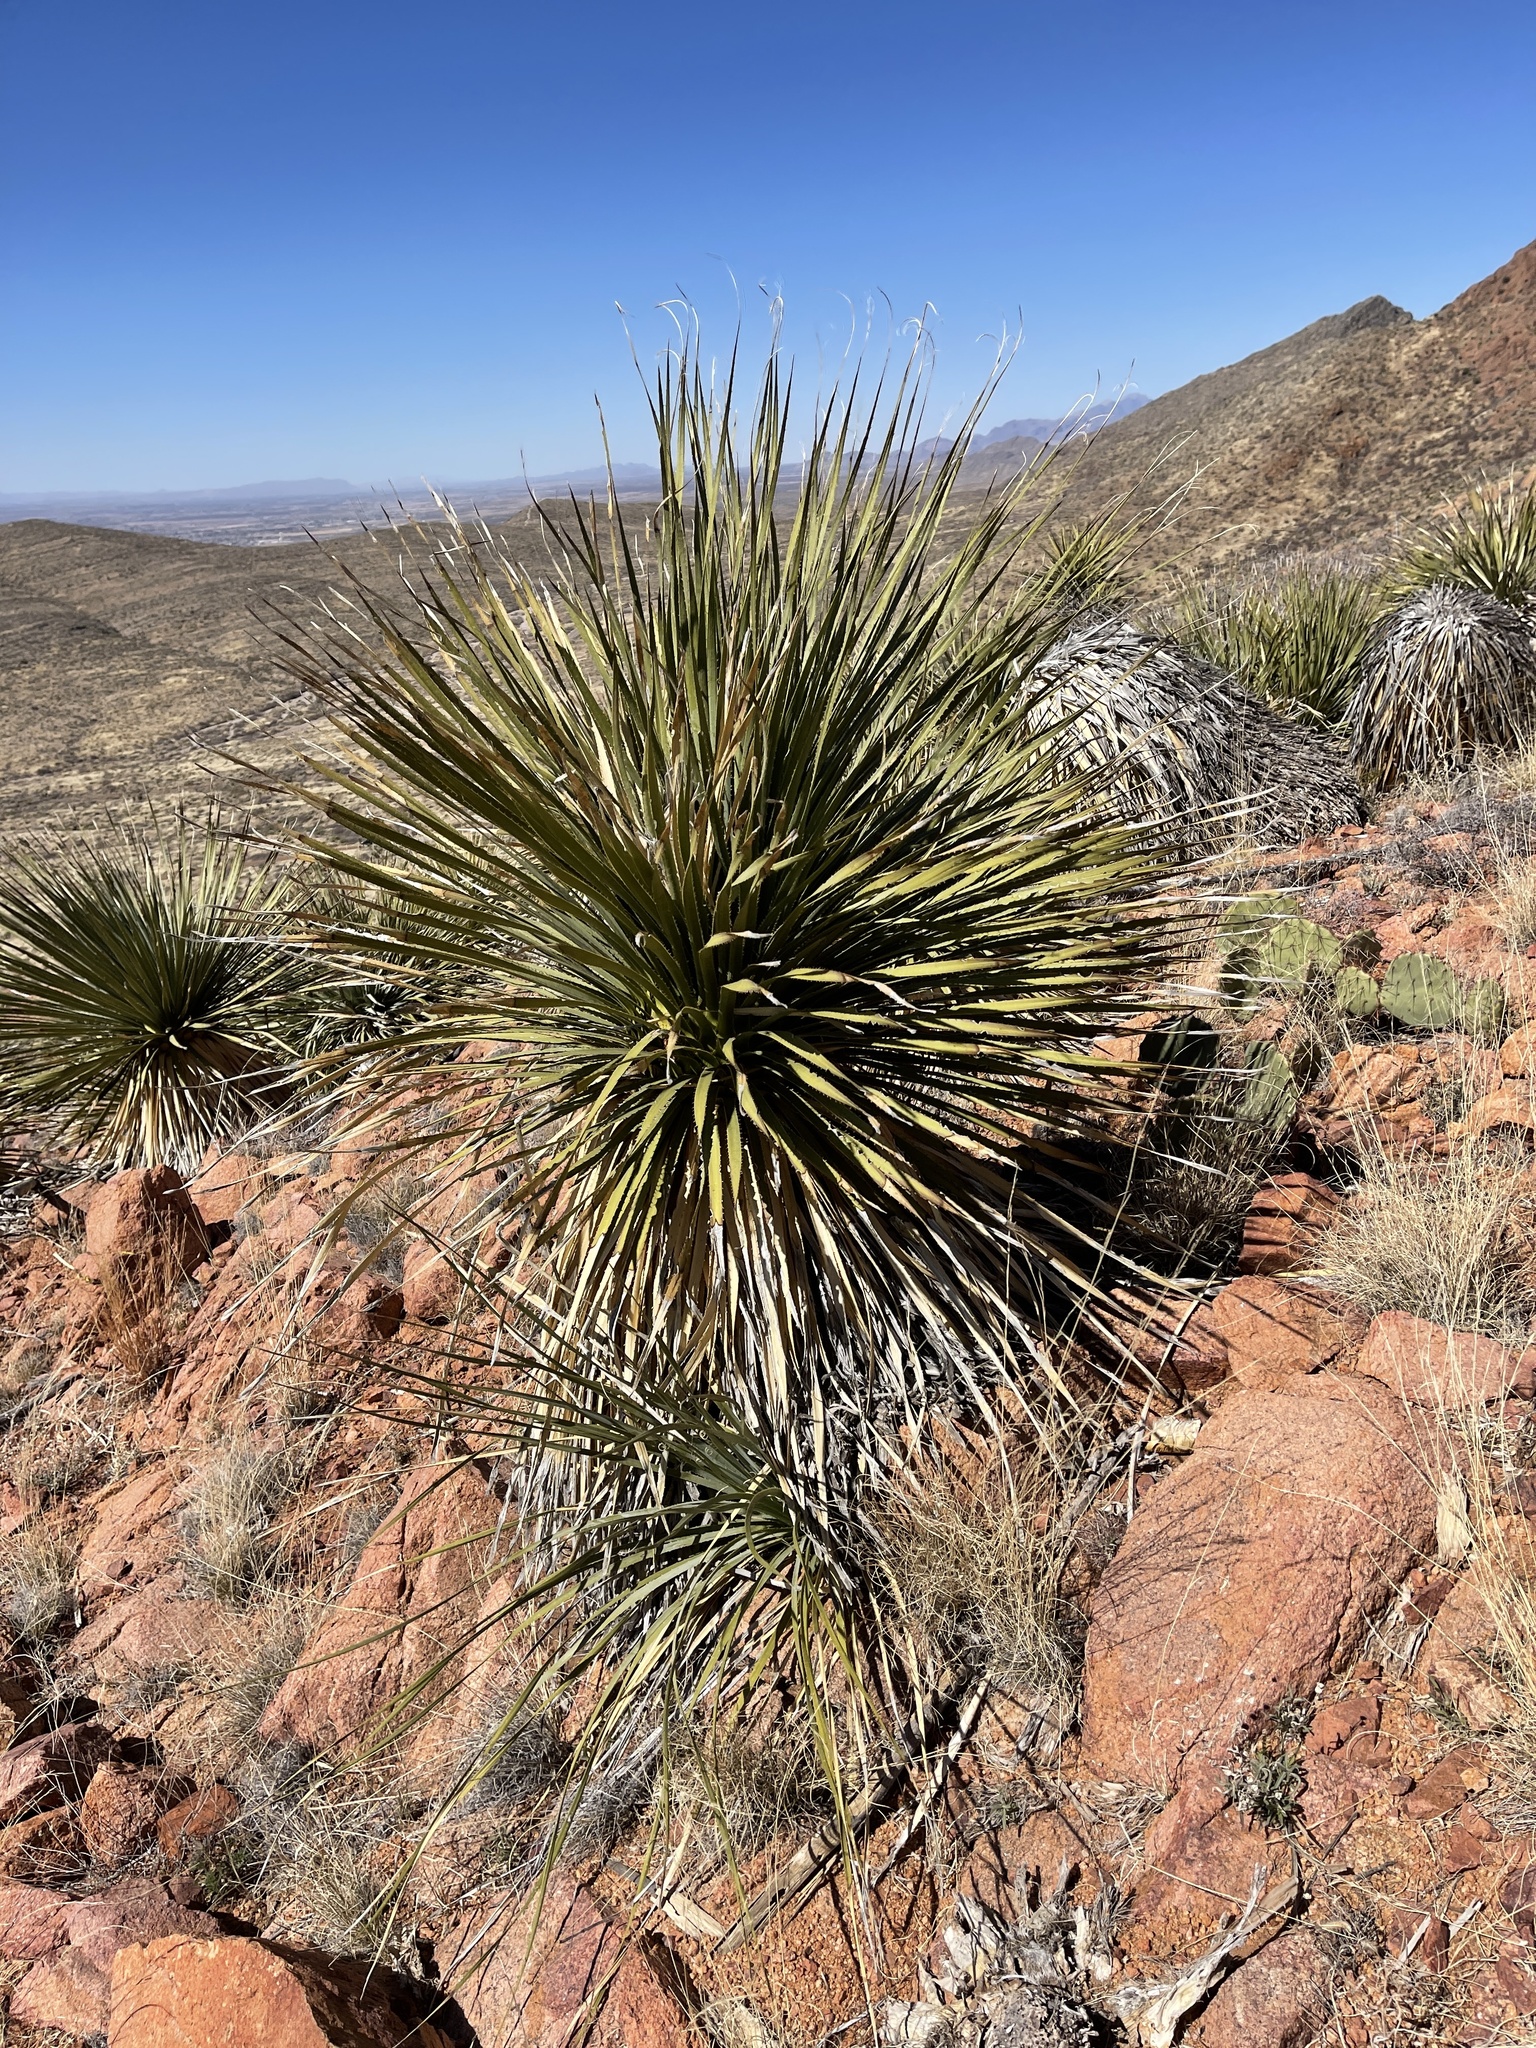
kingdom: Plantae
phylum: Tracheophyta
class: Liliopsida
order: Asparagales
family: Asparagaceae
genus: Dasylirion
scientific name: Dasylirion wheeleri
